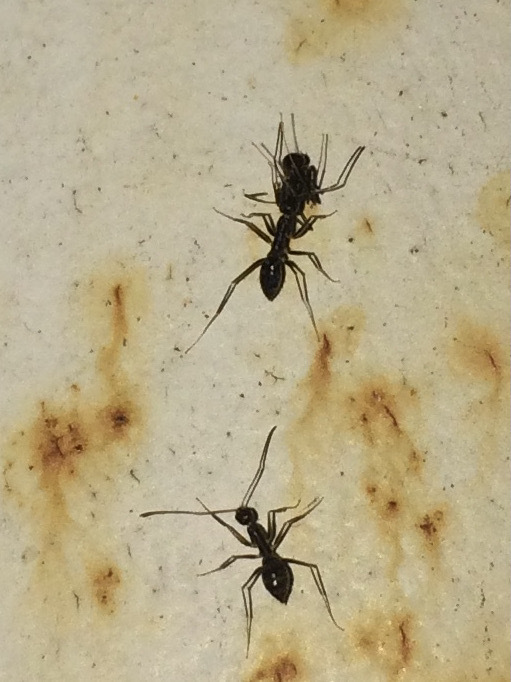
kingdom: Animalia
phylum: Arthropoda
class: Insecta
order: Hymenoptera
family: Formicidae
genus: Paratrechina
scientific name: Paratrechina longicornis
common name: Longhorned crazy ant
